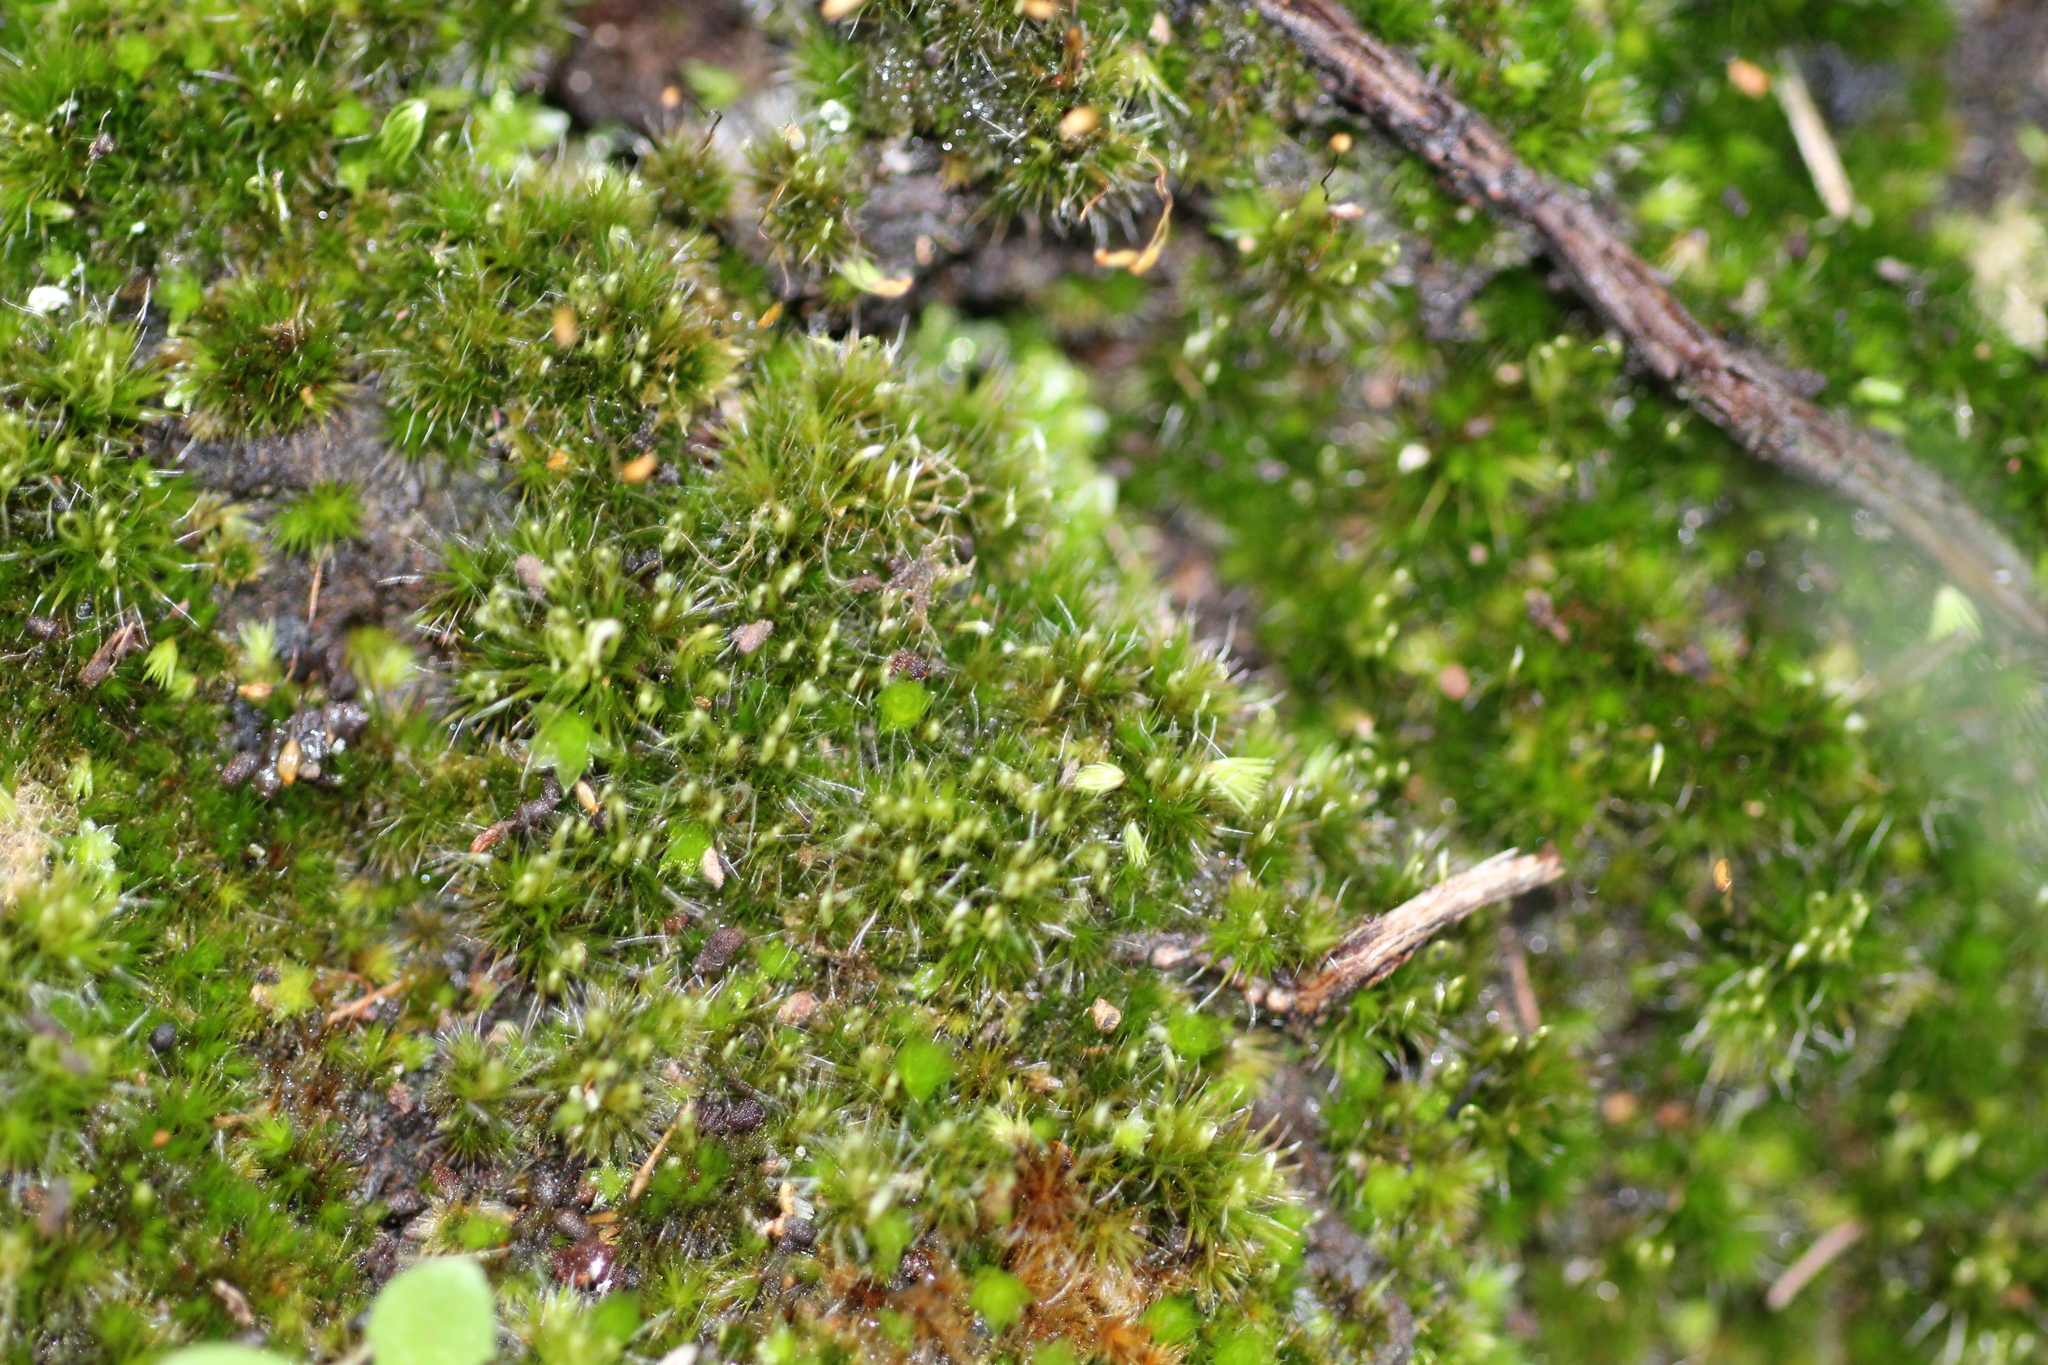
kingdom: Plantae
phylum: Bryophyta
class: Bryopsida
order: Dicranales
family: Leucobryaceae
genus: Campylopus
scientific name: Campylopus introflexus
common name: Heath star moss
